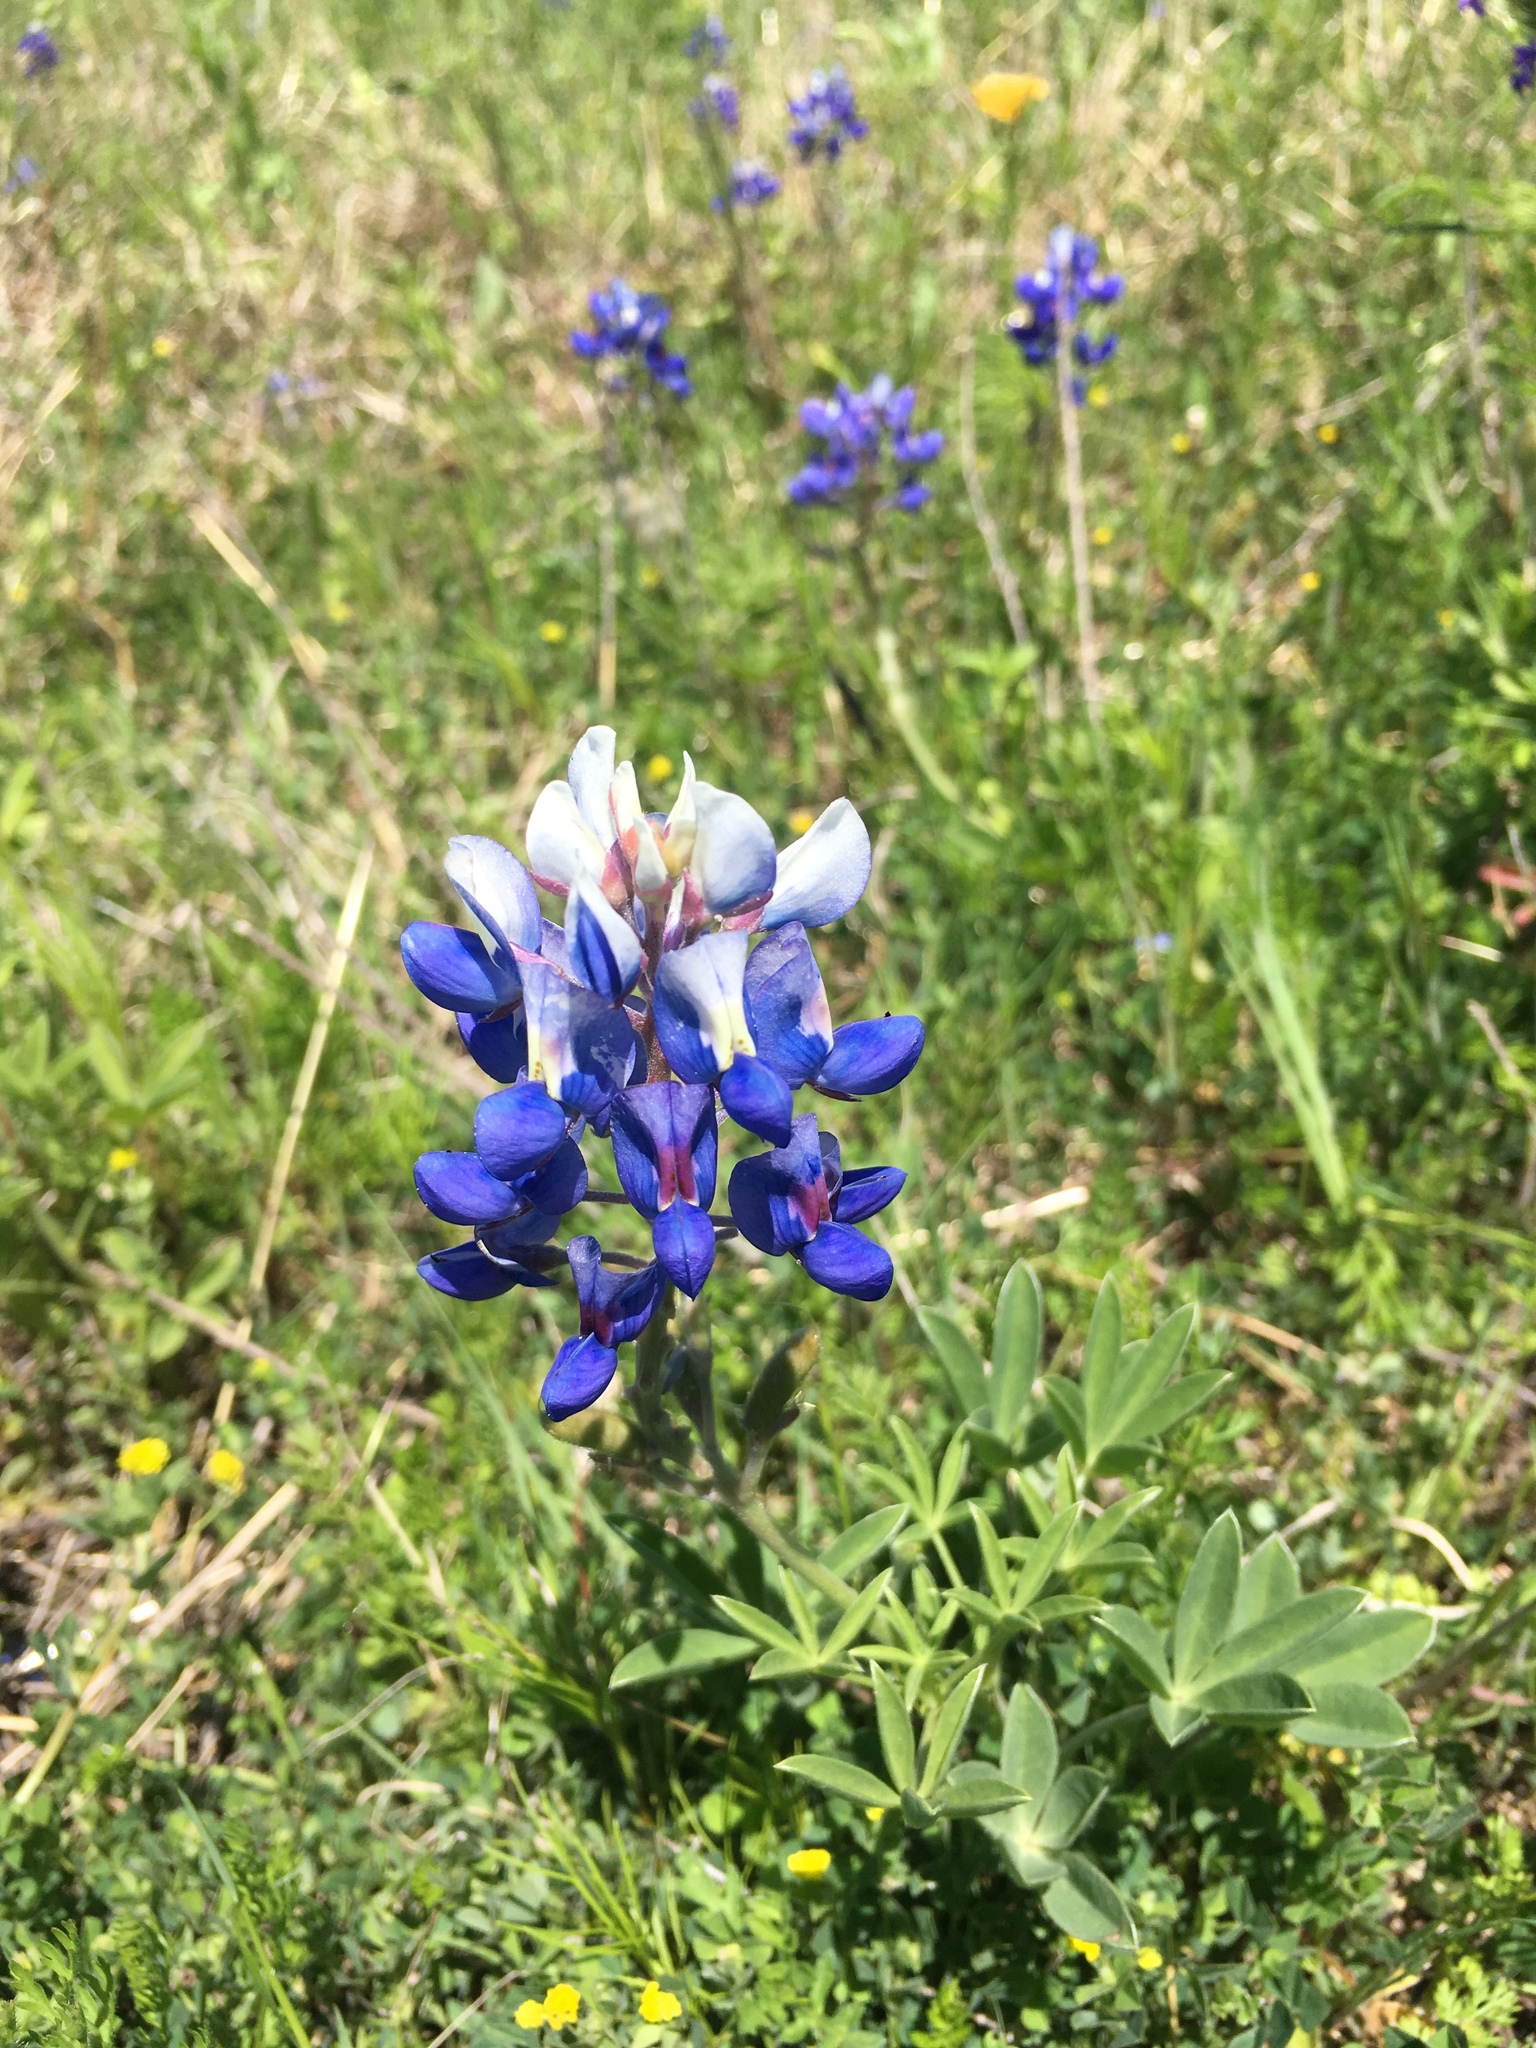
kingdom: Plantae
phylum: Tracheophyta
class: Magnoliopsida
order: Fabales
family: Fabaceae
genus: Lupinus
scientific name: Lupinus texensis
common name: Texas bluebonnet
